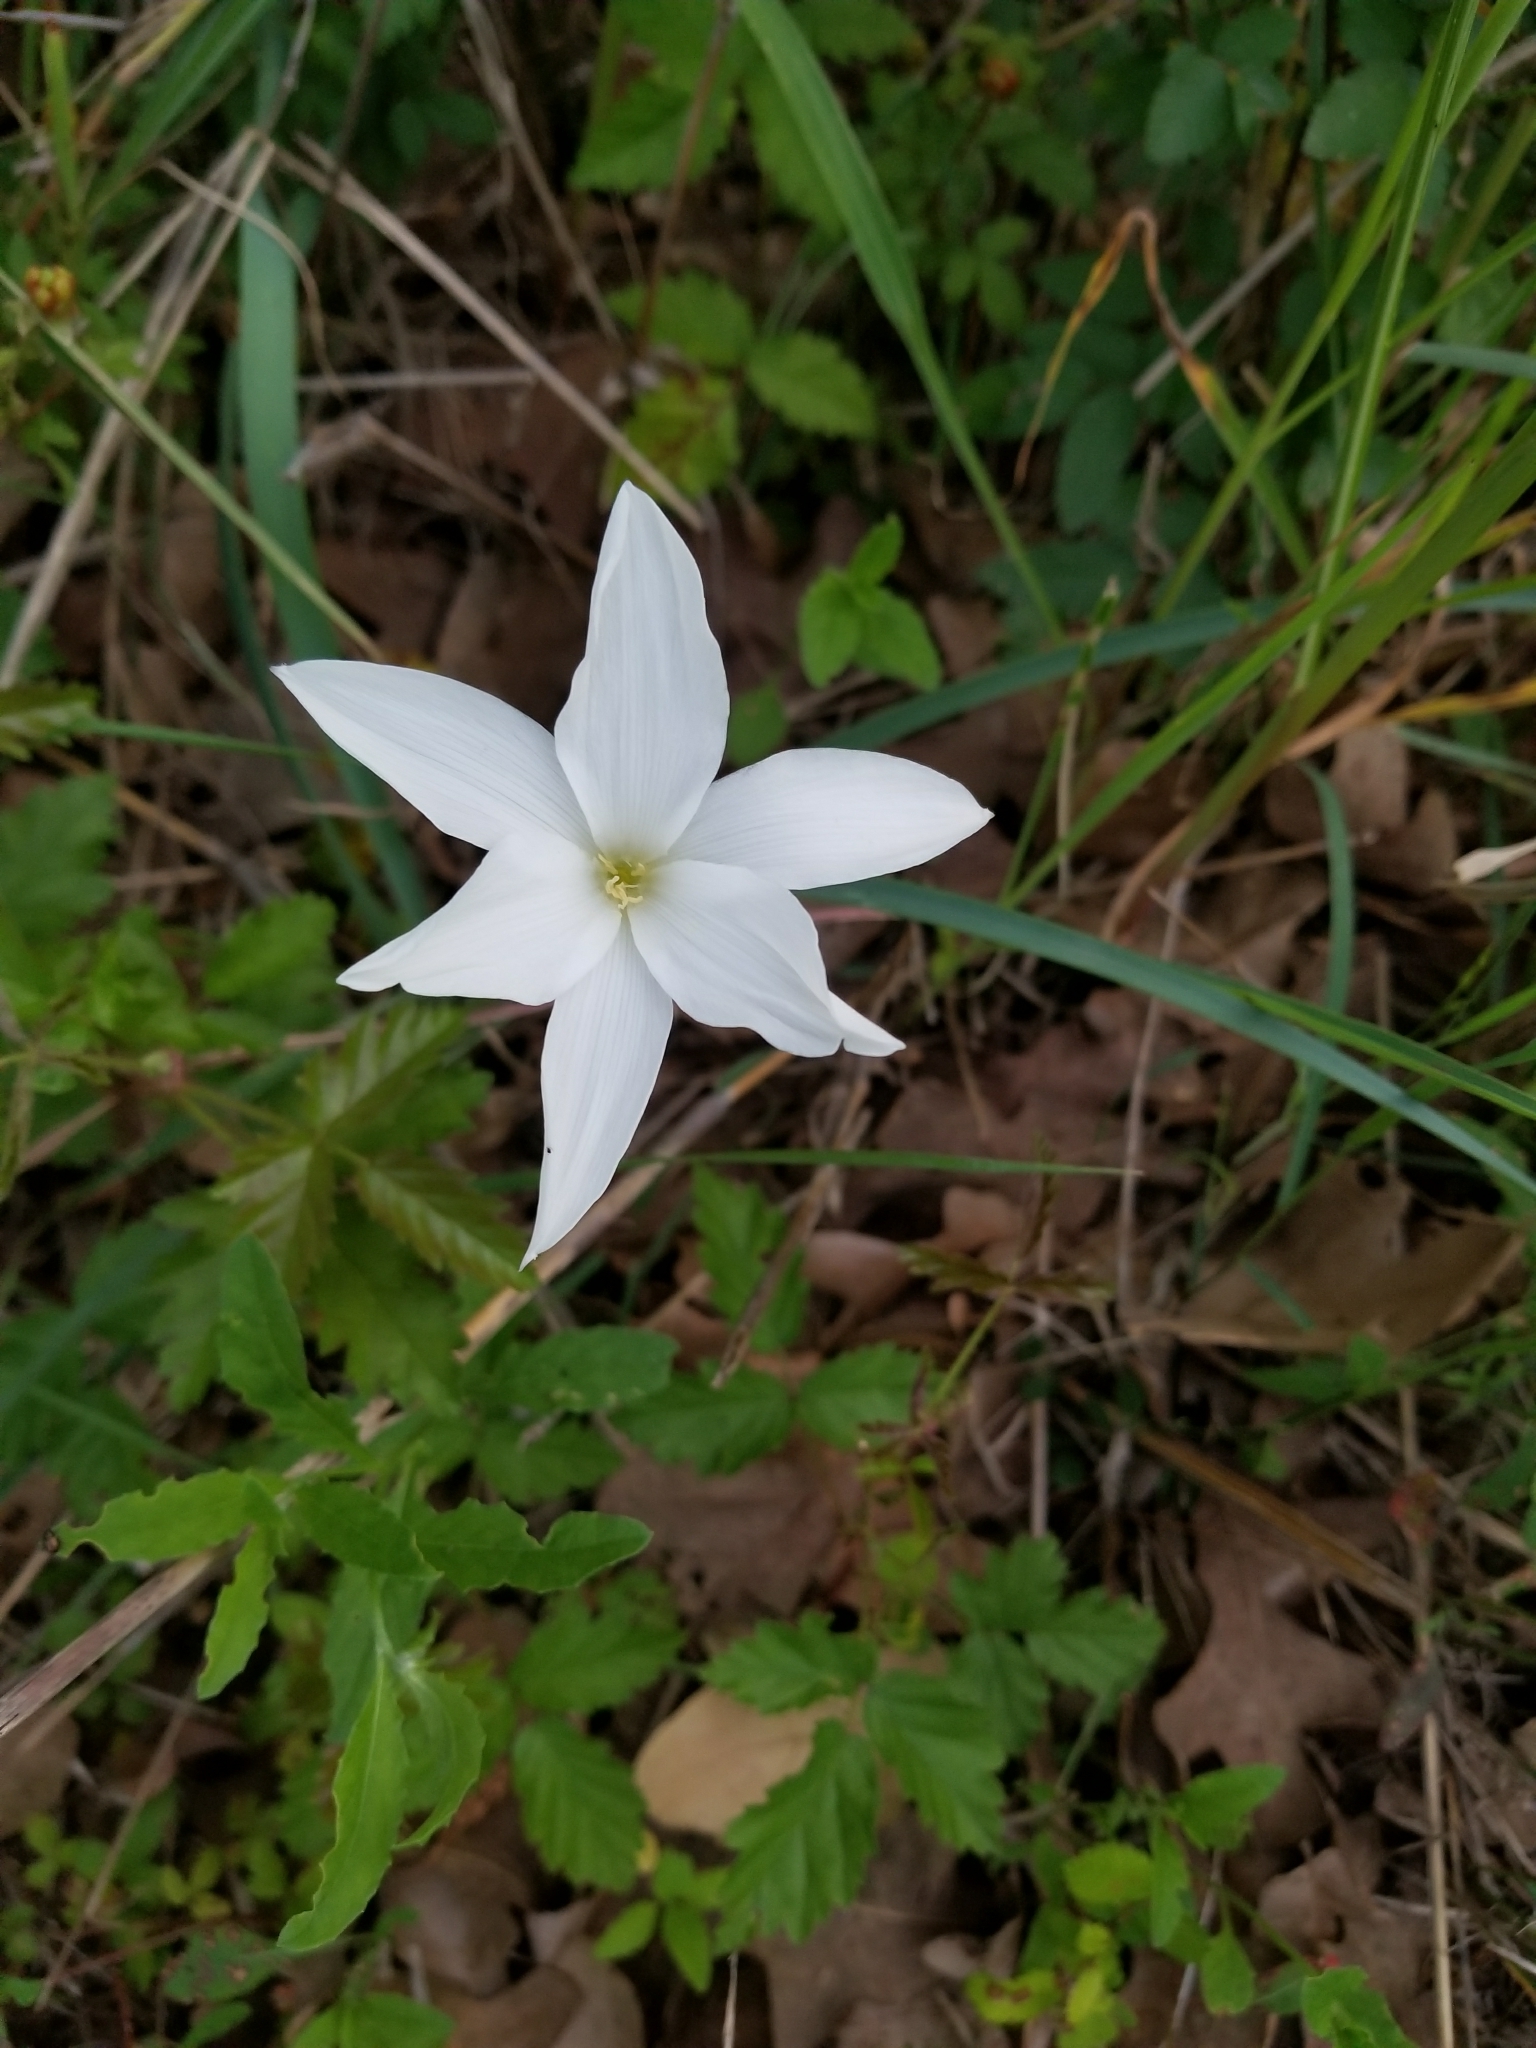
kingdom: Plantae
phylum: Tracheophyta
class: Liliopsida
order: Asparagales
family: Amaryllidaceae
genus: Zephyranthes
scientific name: Zephyranthes drummondii
